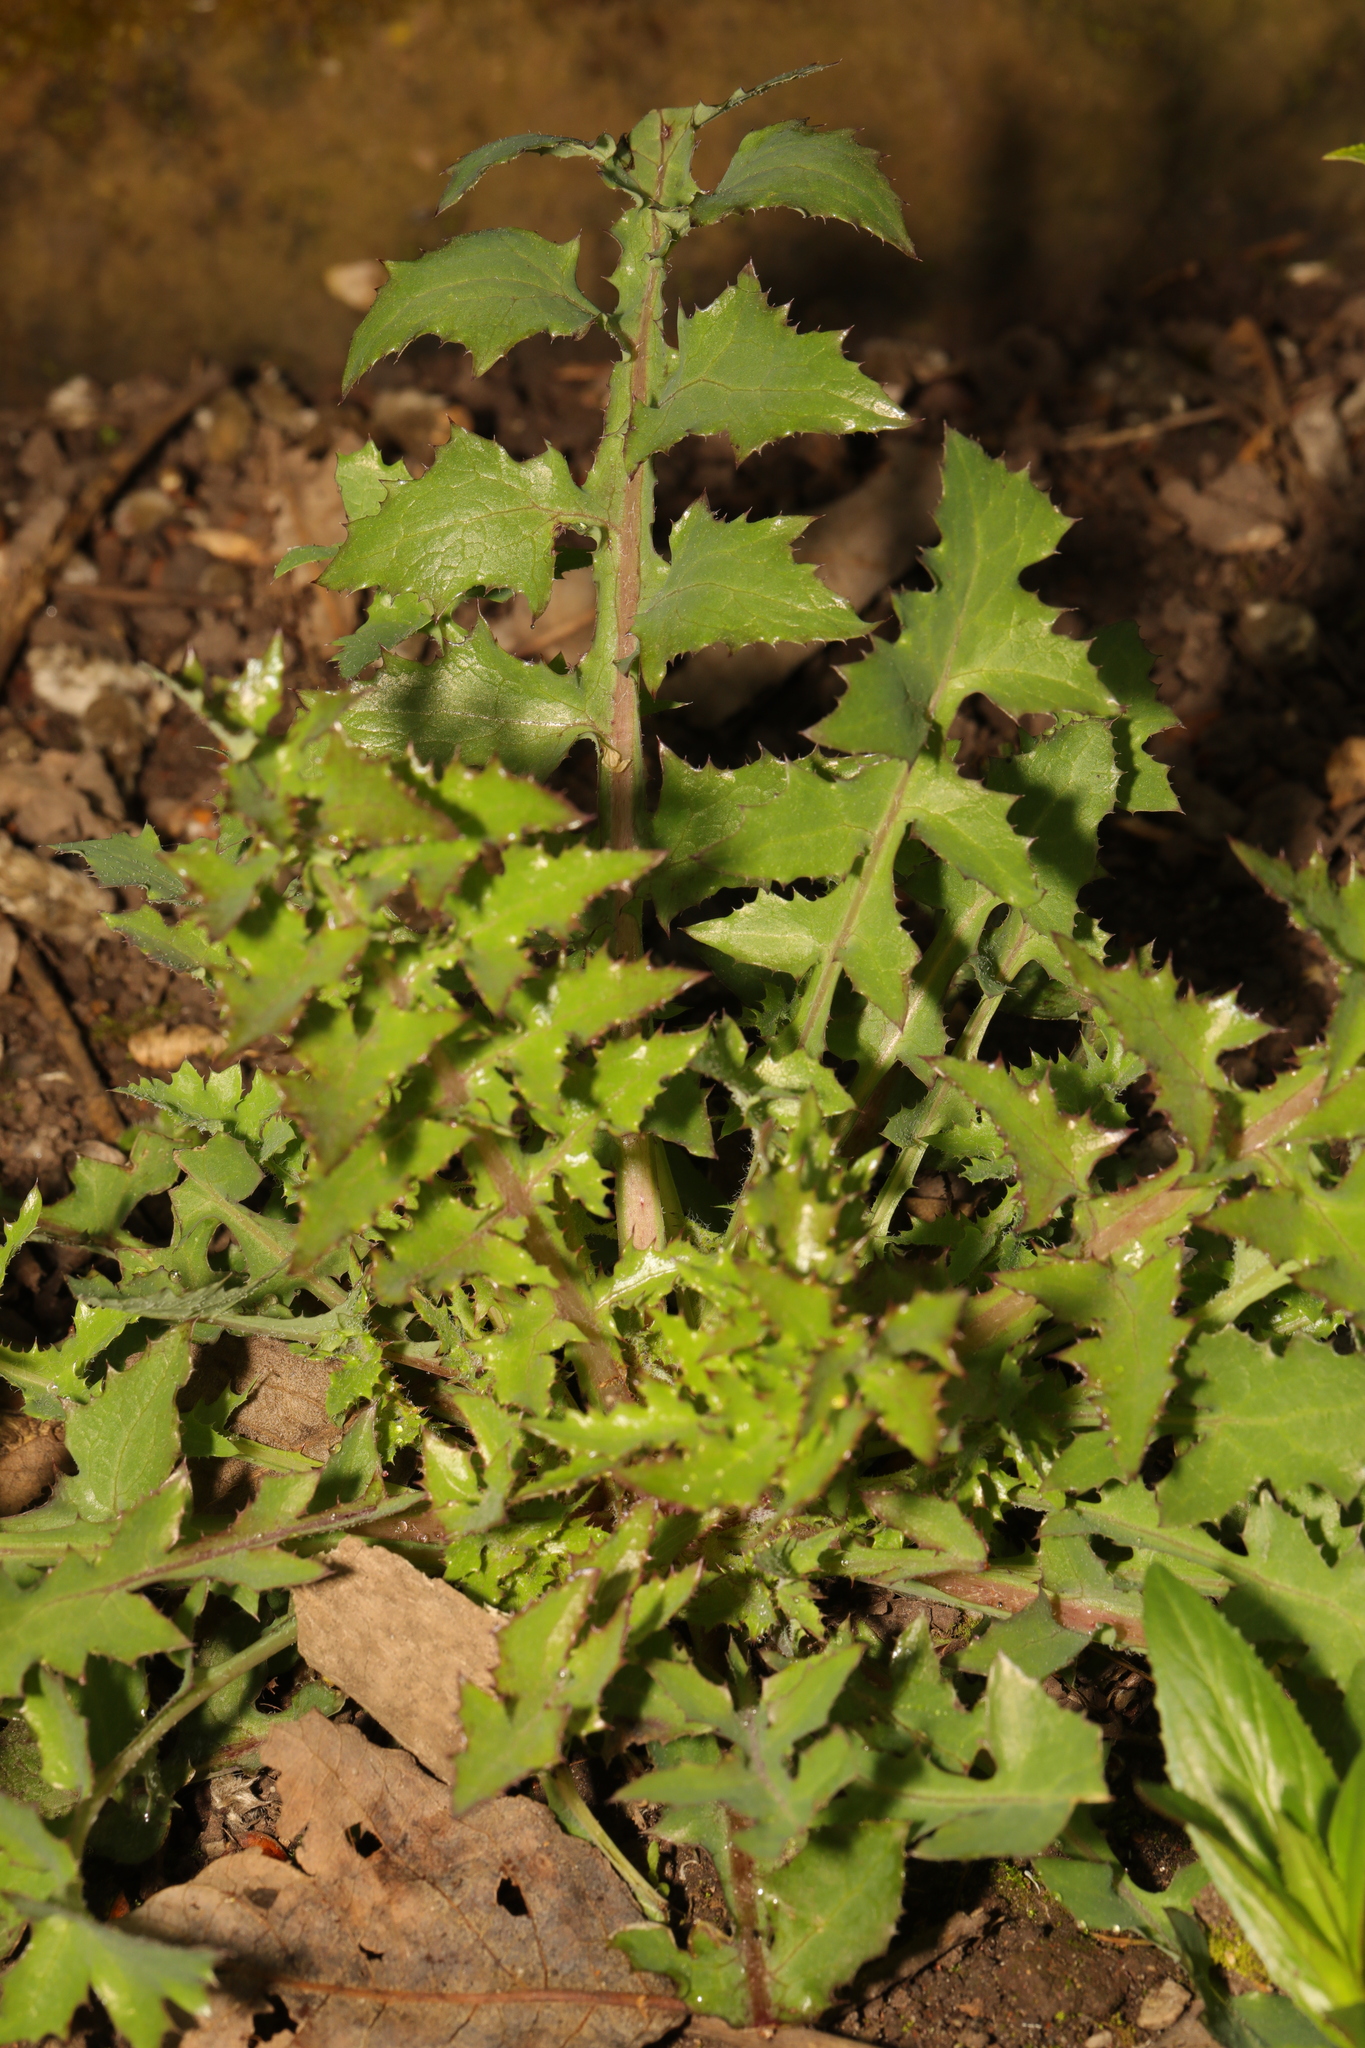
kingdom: Plantae
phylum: Tracheophyta
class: Magnoliopsida
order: Asterales
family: Asteraceae
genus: Sonchus
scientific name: Sonchus oleraceus
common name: Common sowthistle
